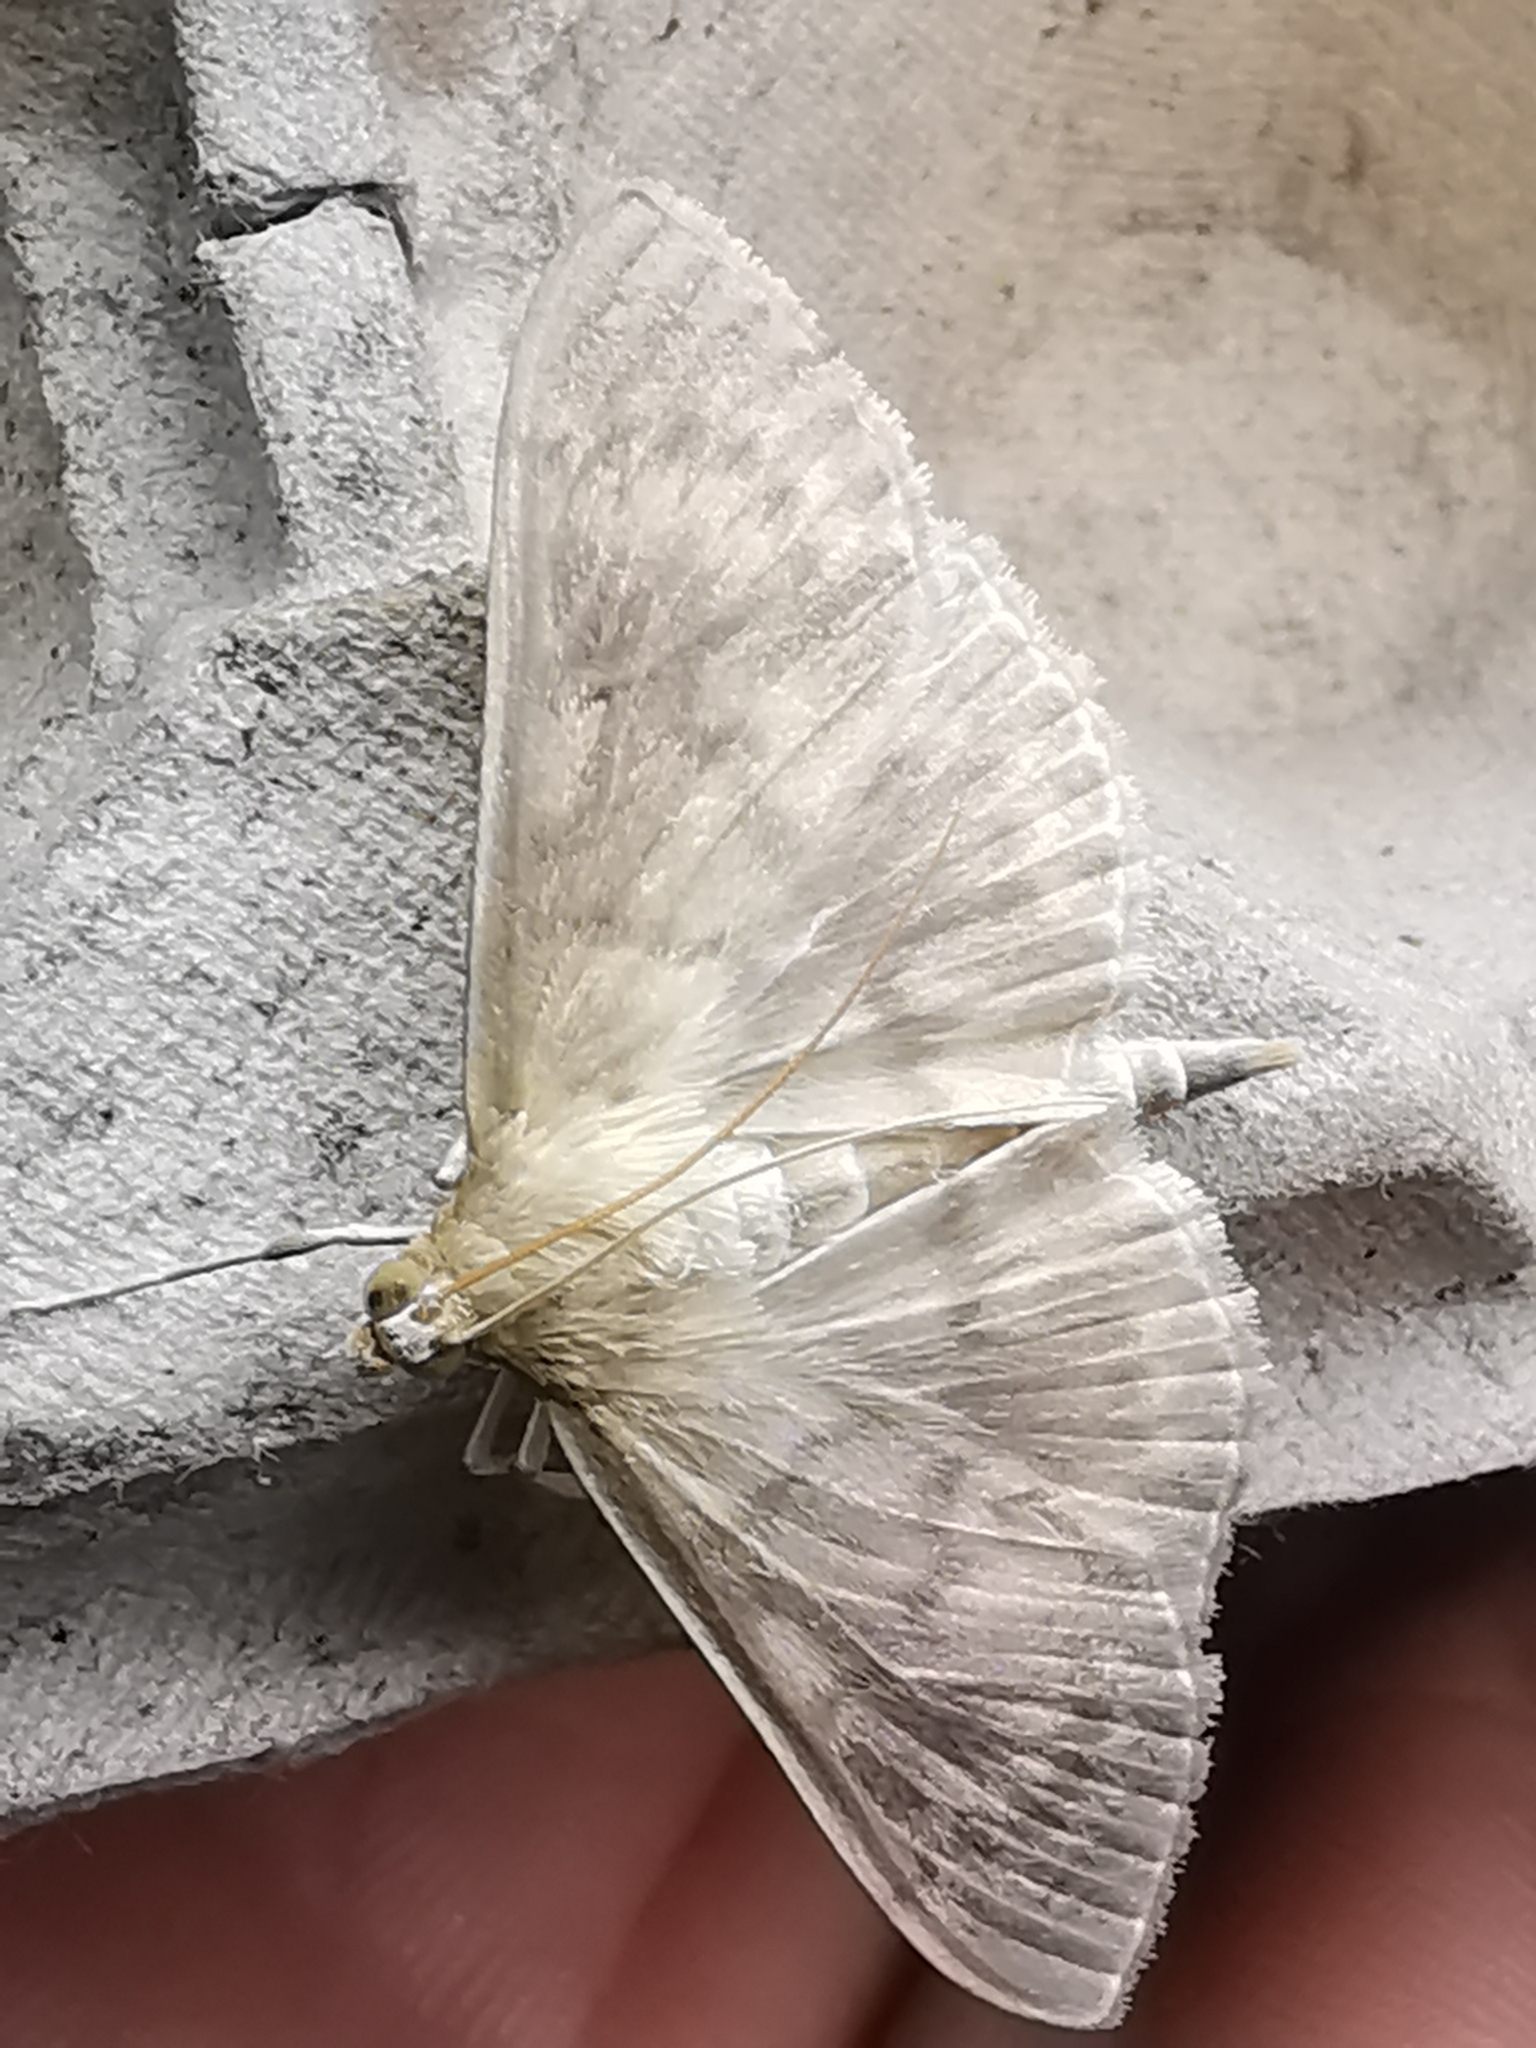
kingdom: Animalia
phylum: Arthropoda
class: Insecta
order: Lepidoptera
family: Crambidae
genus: Patania
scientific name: Patania ruralis
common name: Mother of pearl
